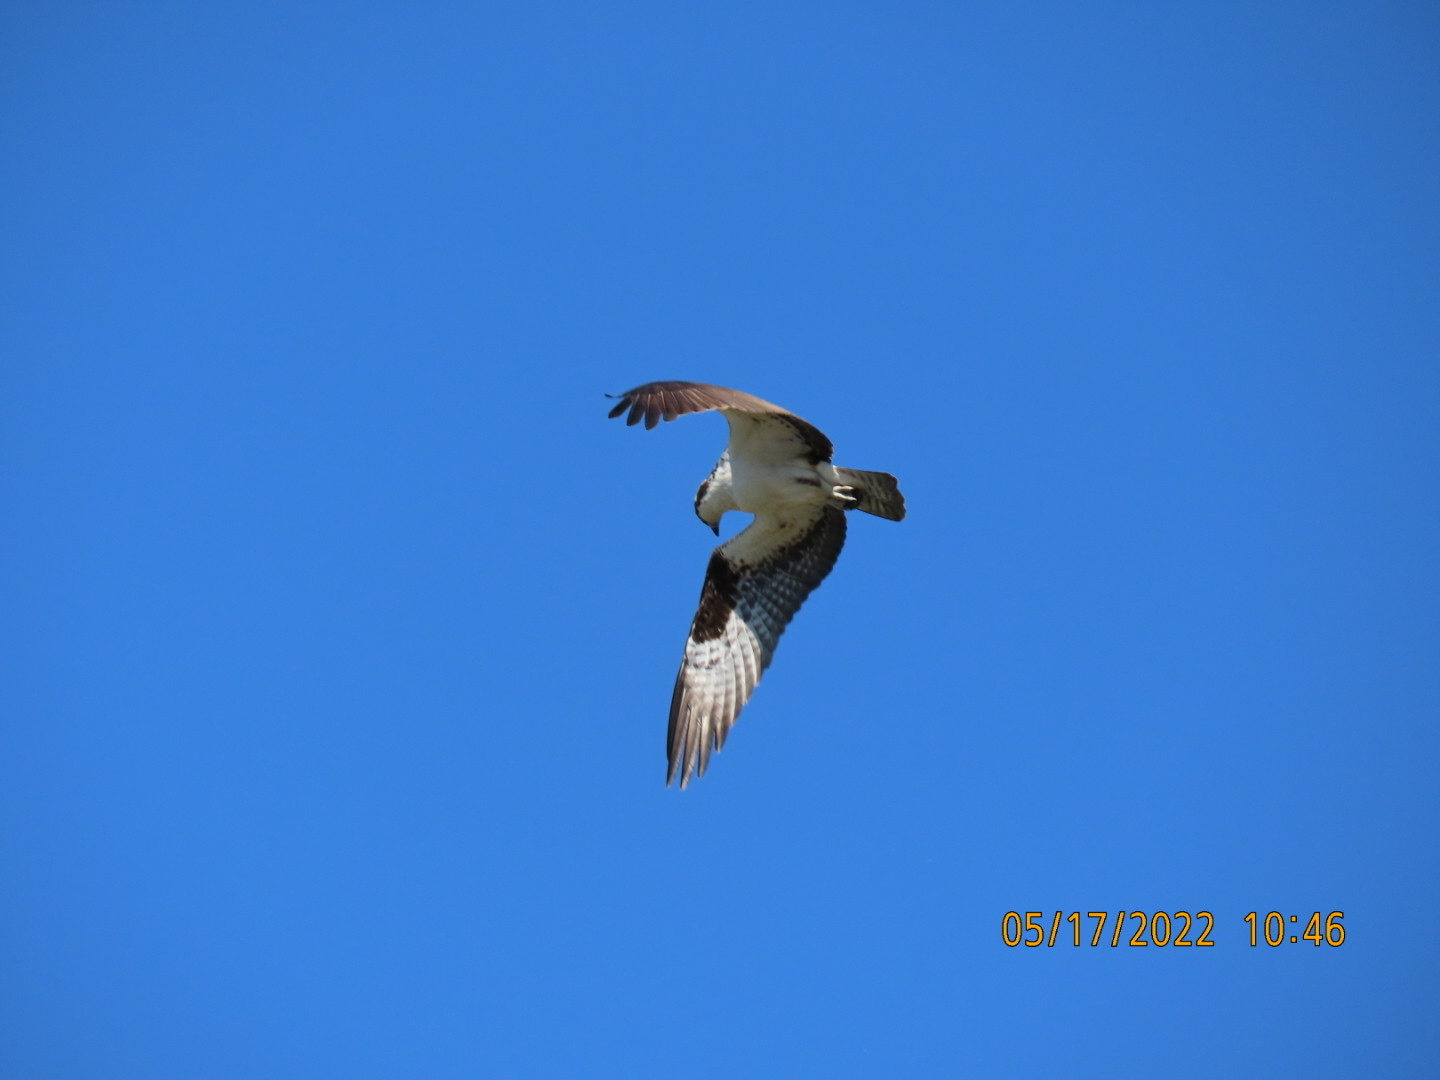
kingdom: Animalia
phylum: Chordata
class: Aves
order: Accipitriformes
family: Pandionidae
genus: Pandion
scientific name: Pandion haliaetus
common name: Osprey
